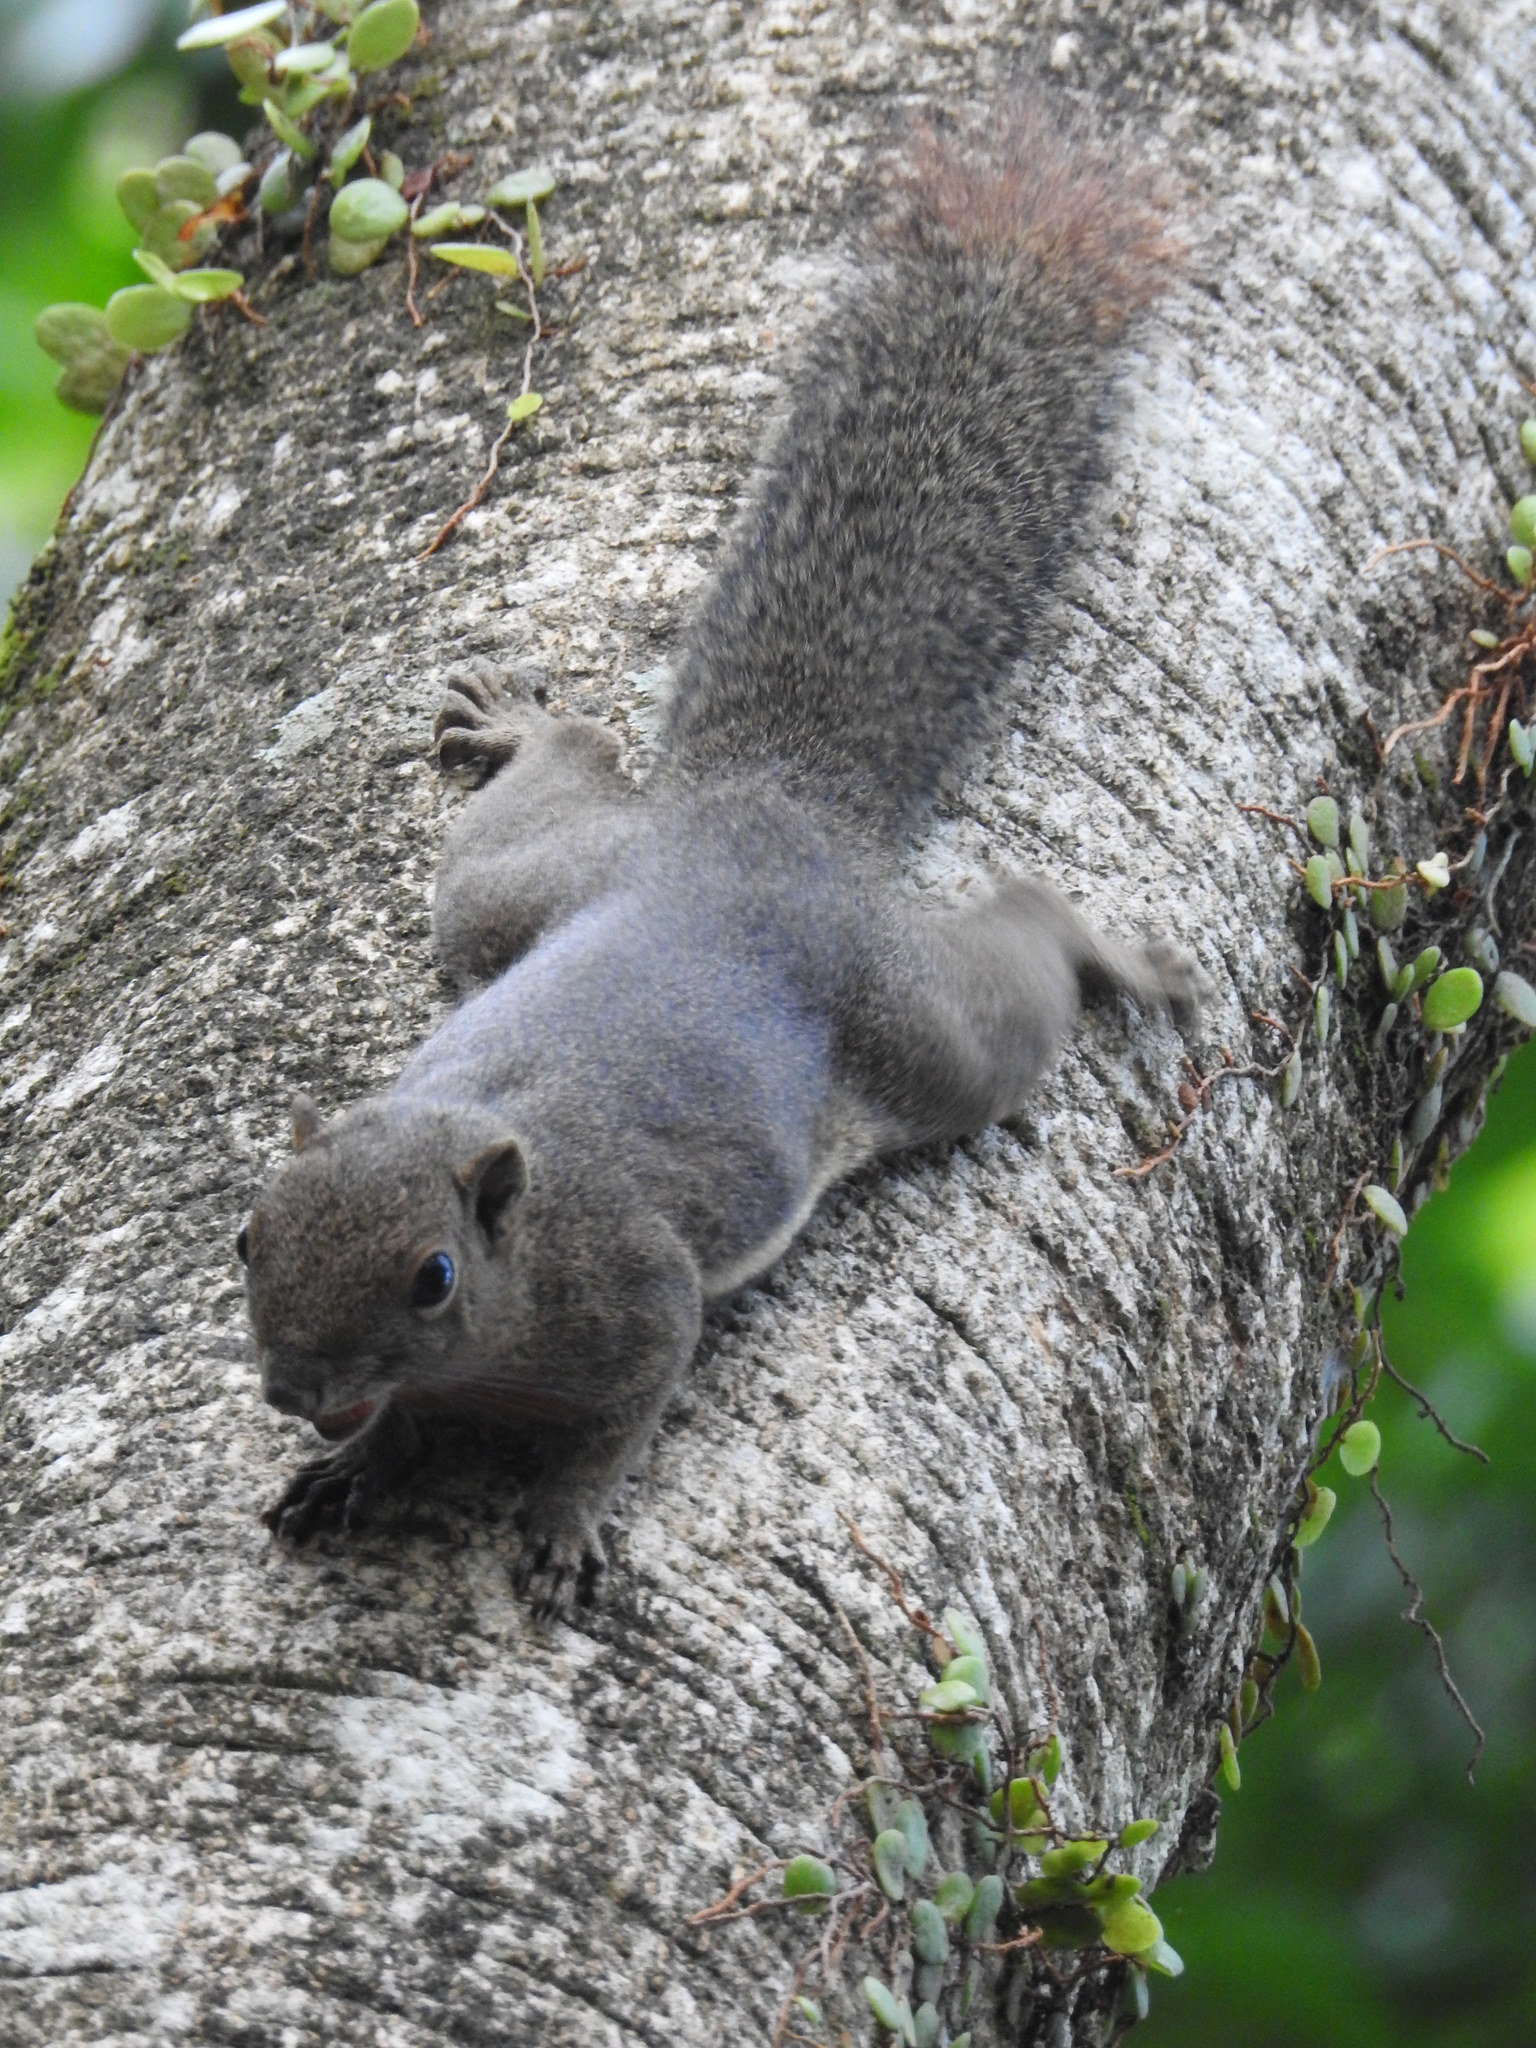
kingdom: Animalia
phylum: Chordata
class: Mammalia
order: Rodentia
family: Sciuridae
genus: Callosciurus
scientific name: Callosciurus notatus
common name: Plantain squirrel
